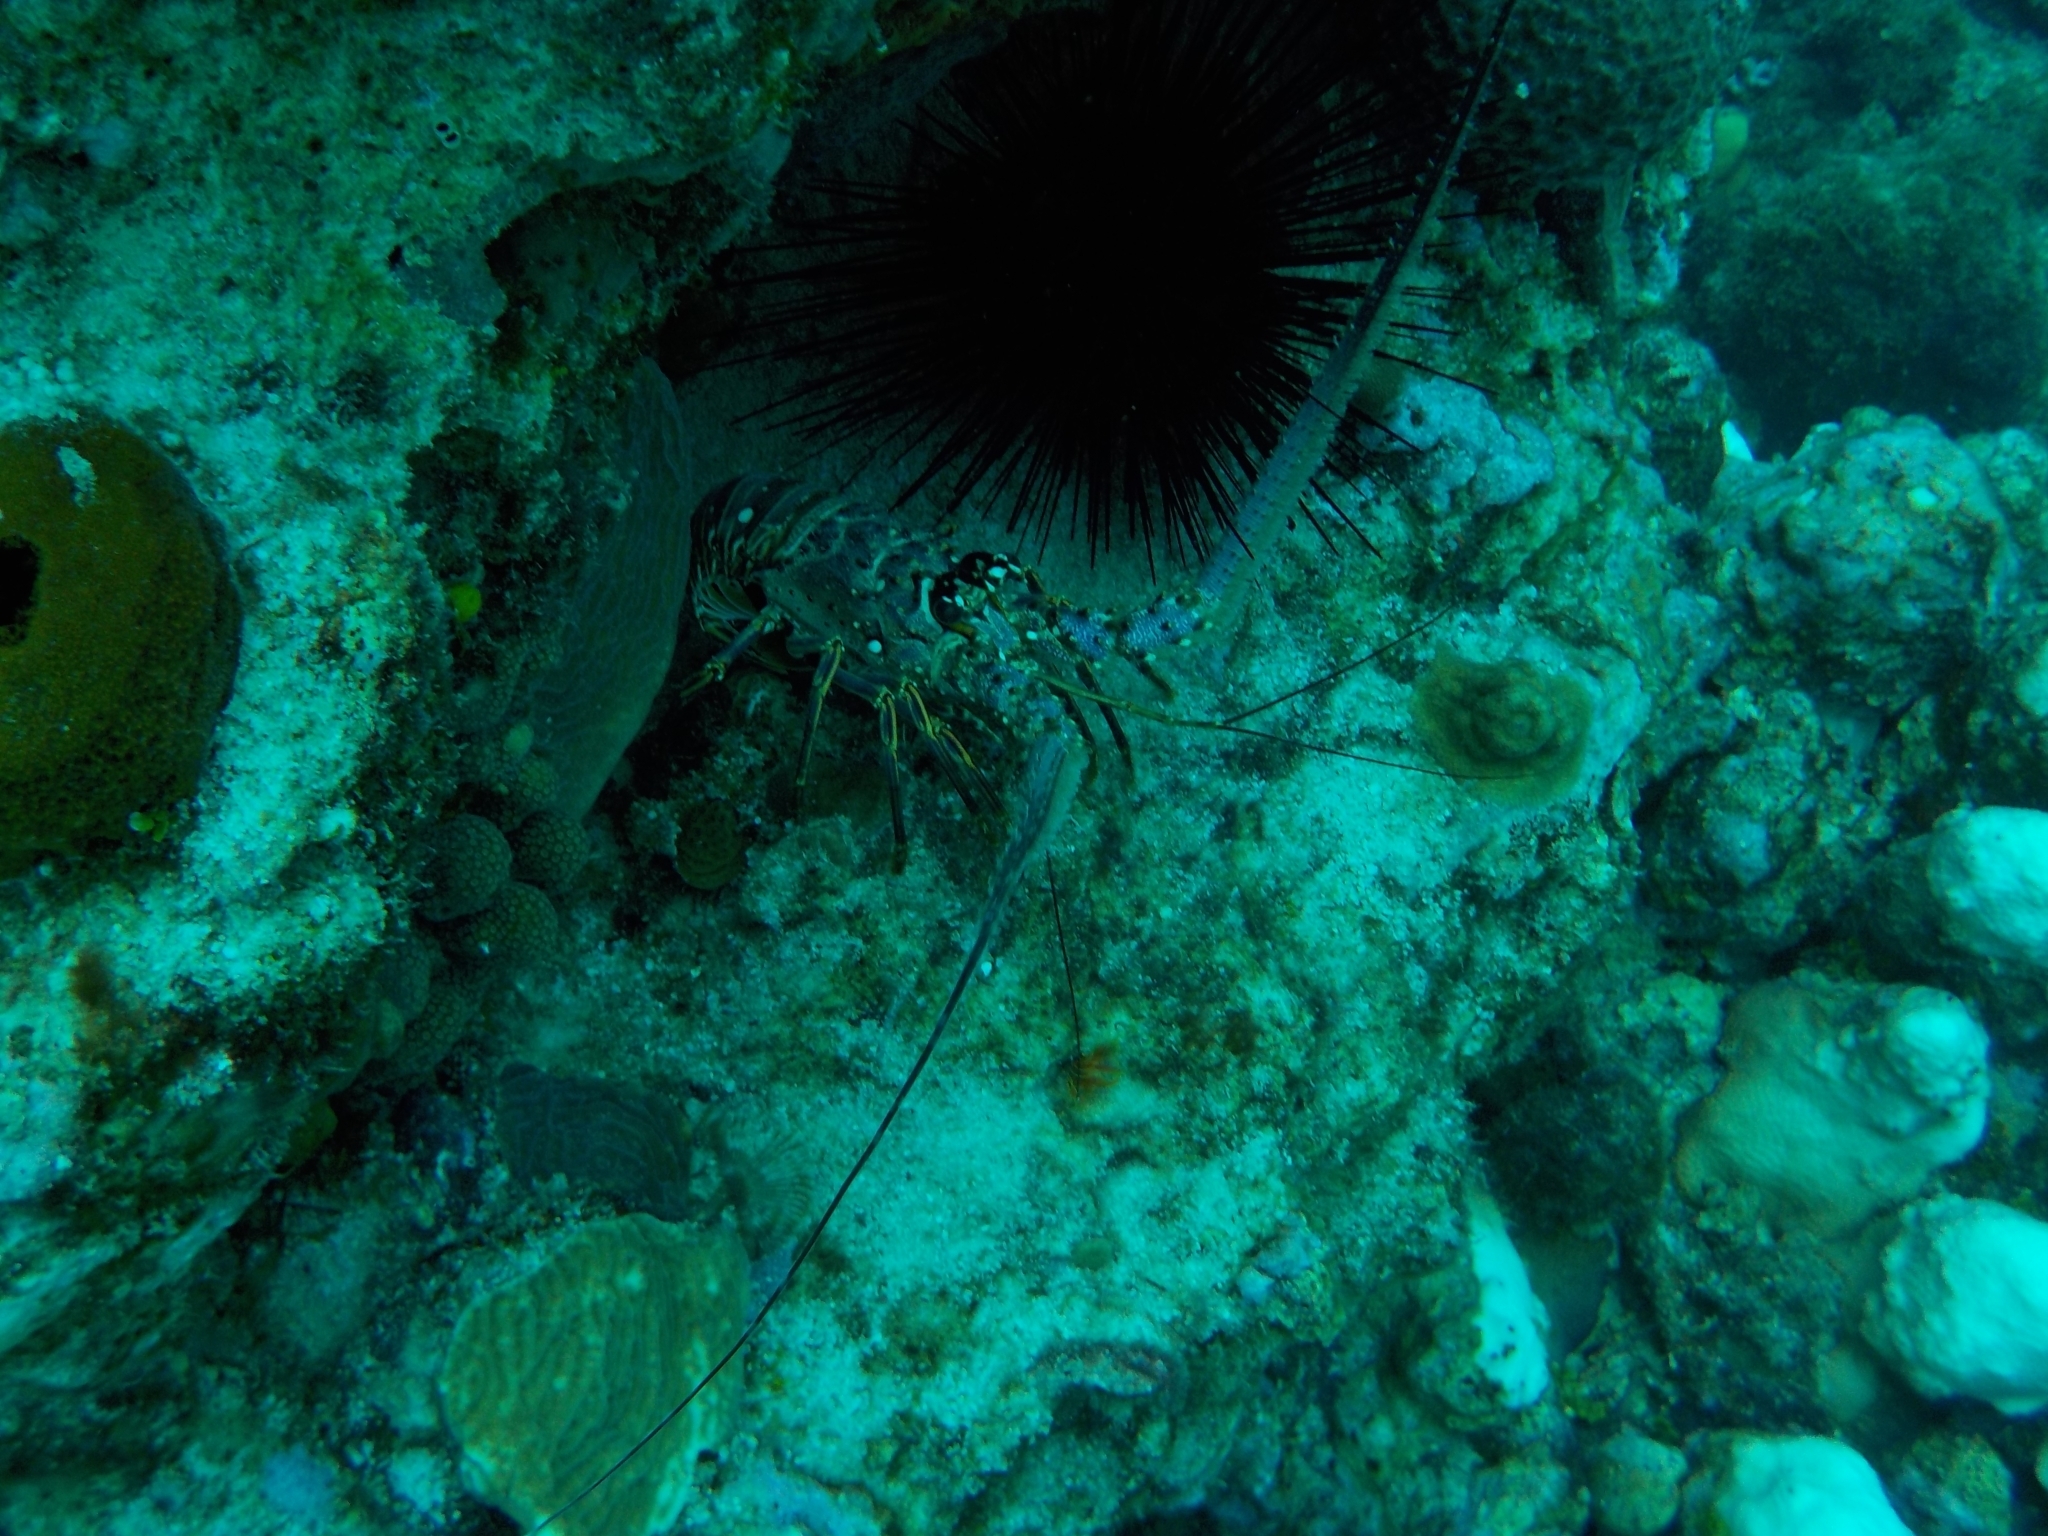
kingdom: Animalia
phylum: Arthropoda
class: Malacostraca
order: Decapoda
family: Palinuridae
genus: Panulirus
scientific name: Panulirus argus
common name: Caribbean spiny lobster
